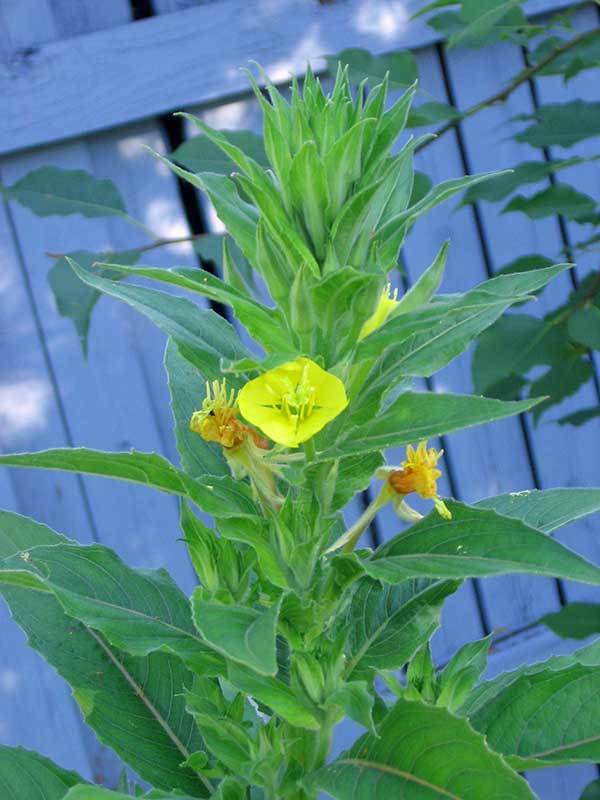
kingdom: Plantae
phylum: Tracheophyta
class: Magnoliopsida
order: Myrtales
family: Onagraceae
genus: Oenothera
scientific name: Oenothera biennis
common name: Common evening-primrose
